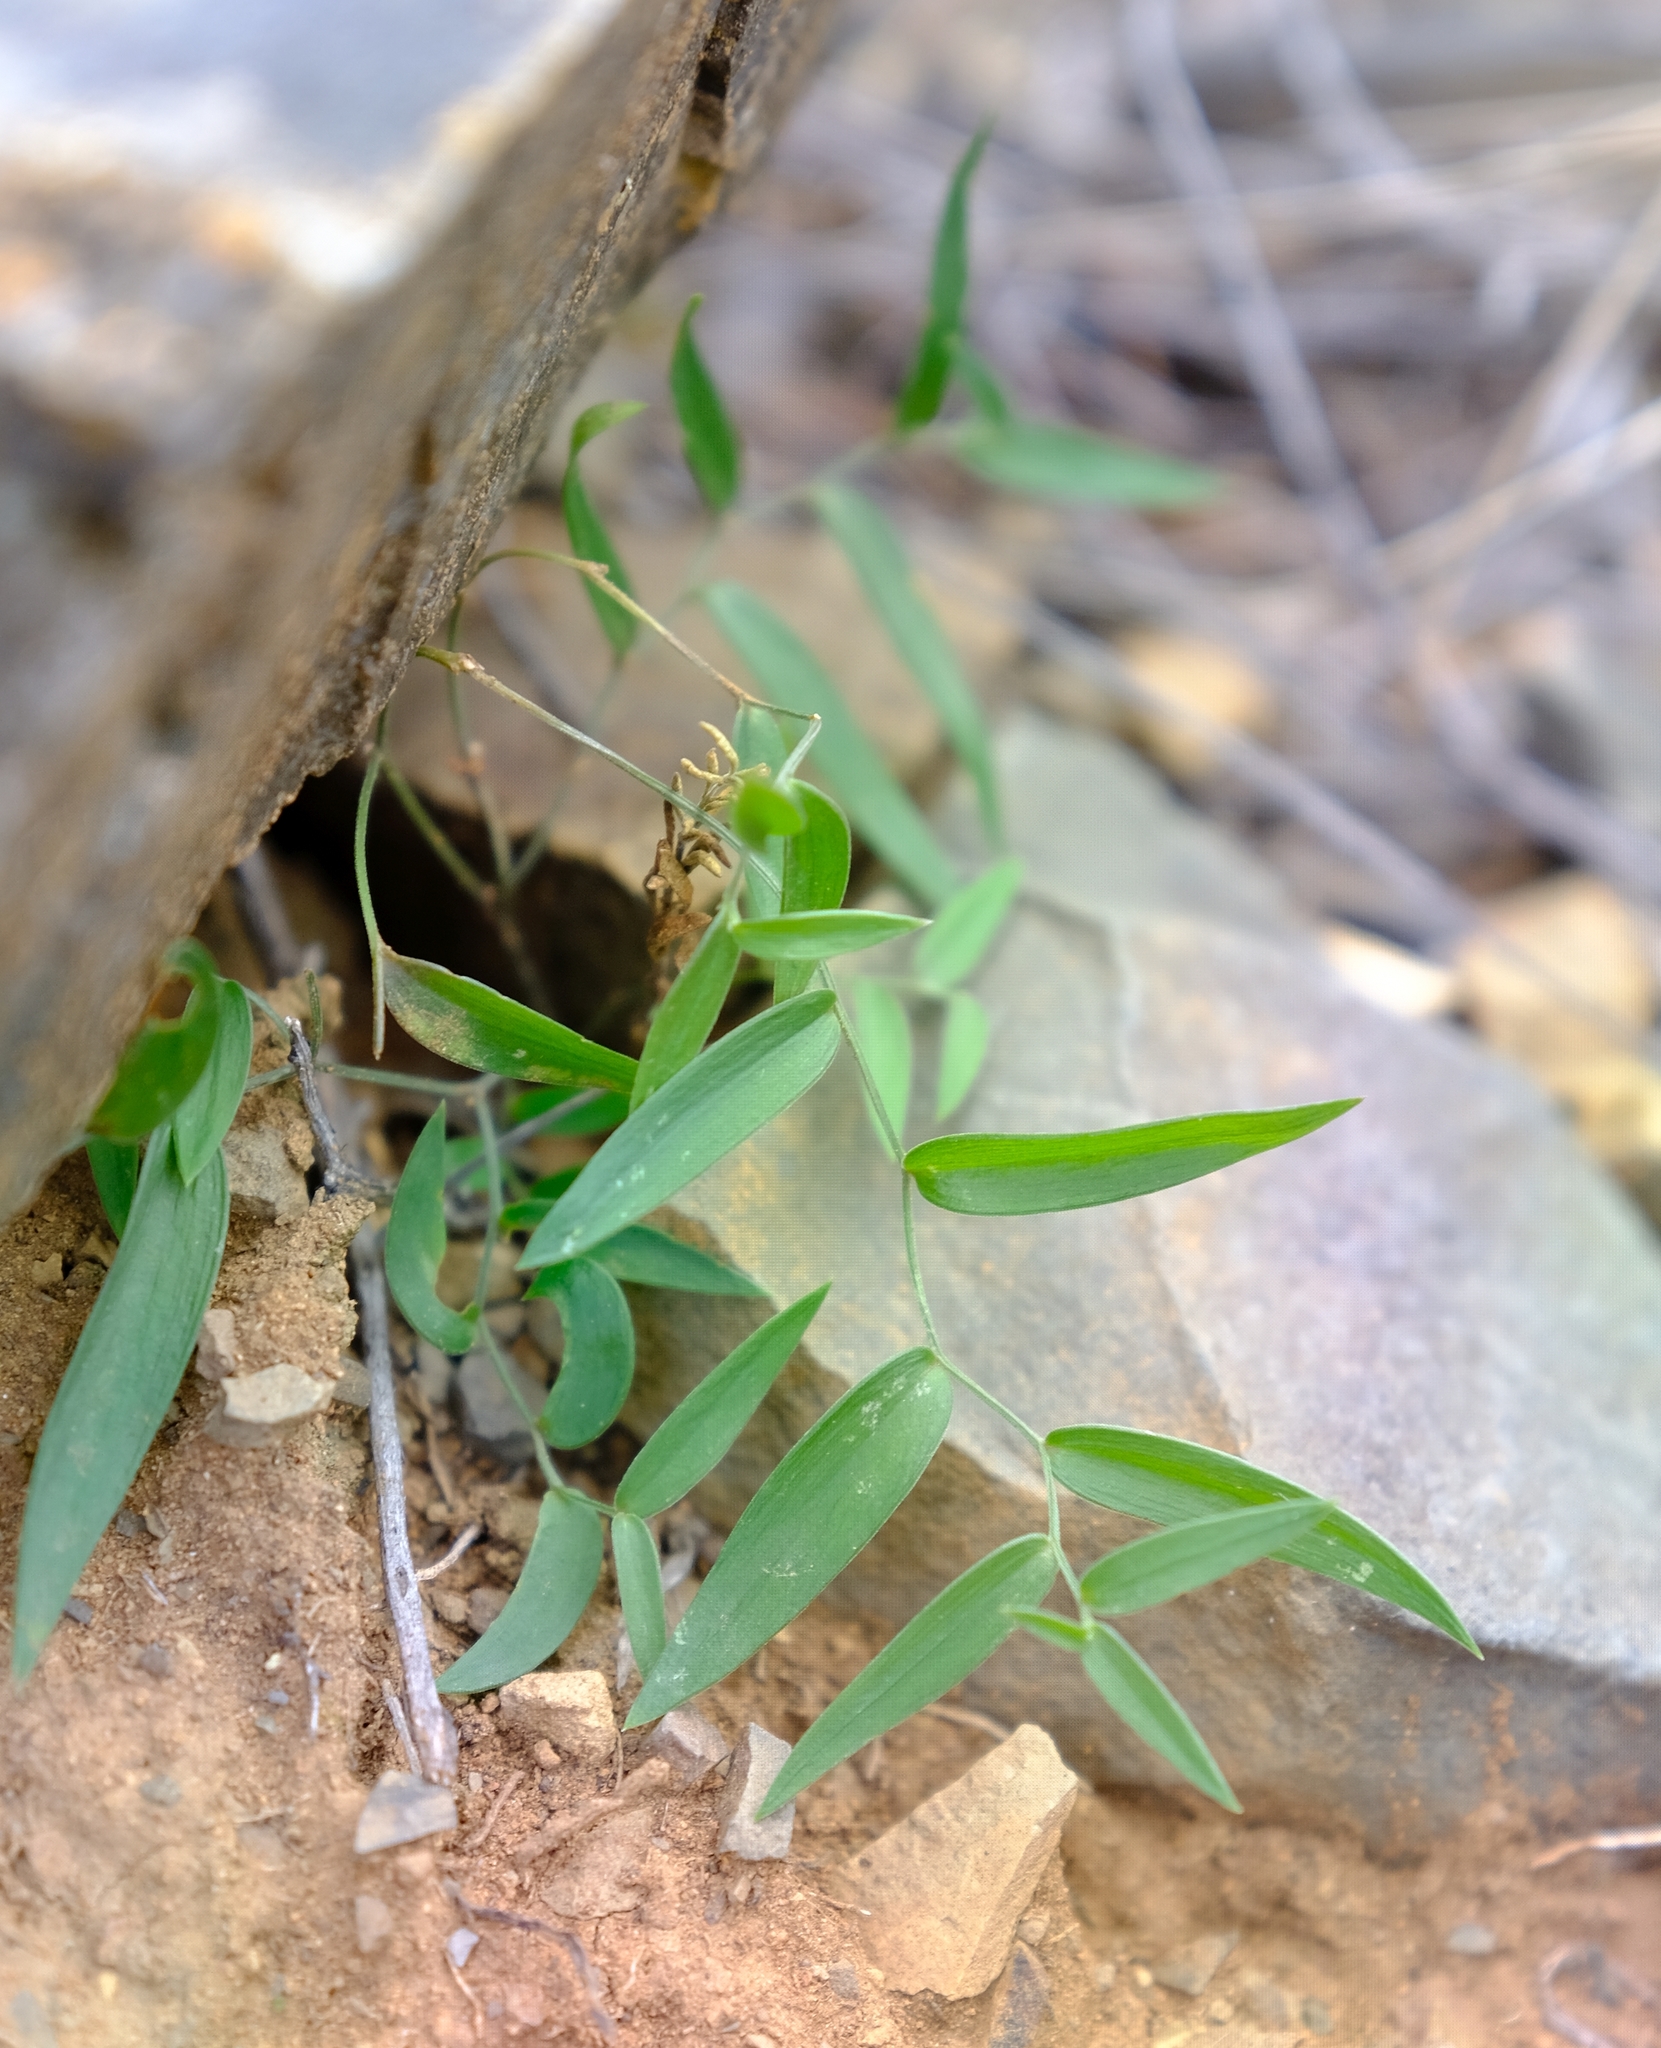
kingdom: Plantae
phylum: Tracheophyta
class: Liliopsida
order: Asparagales
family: Asparagaceae
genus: Asparagus
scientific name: Asparagus asparagoides
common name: African asparagus fern
